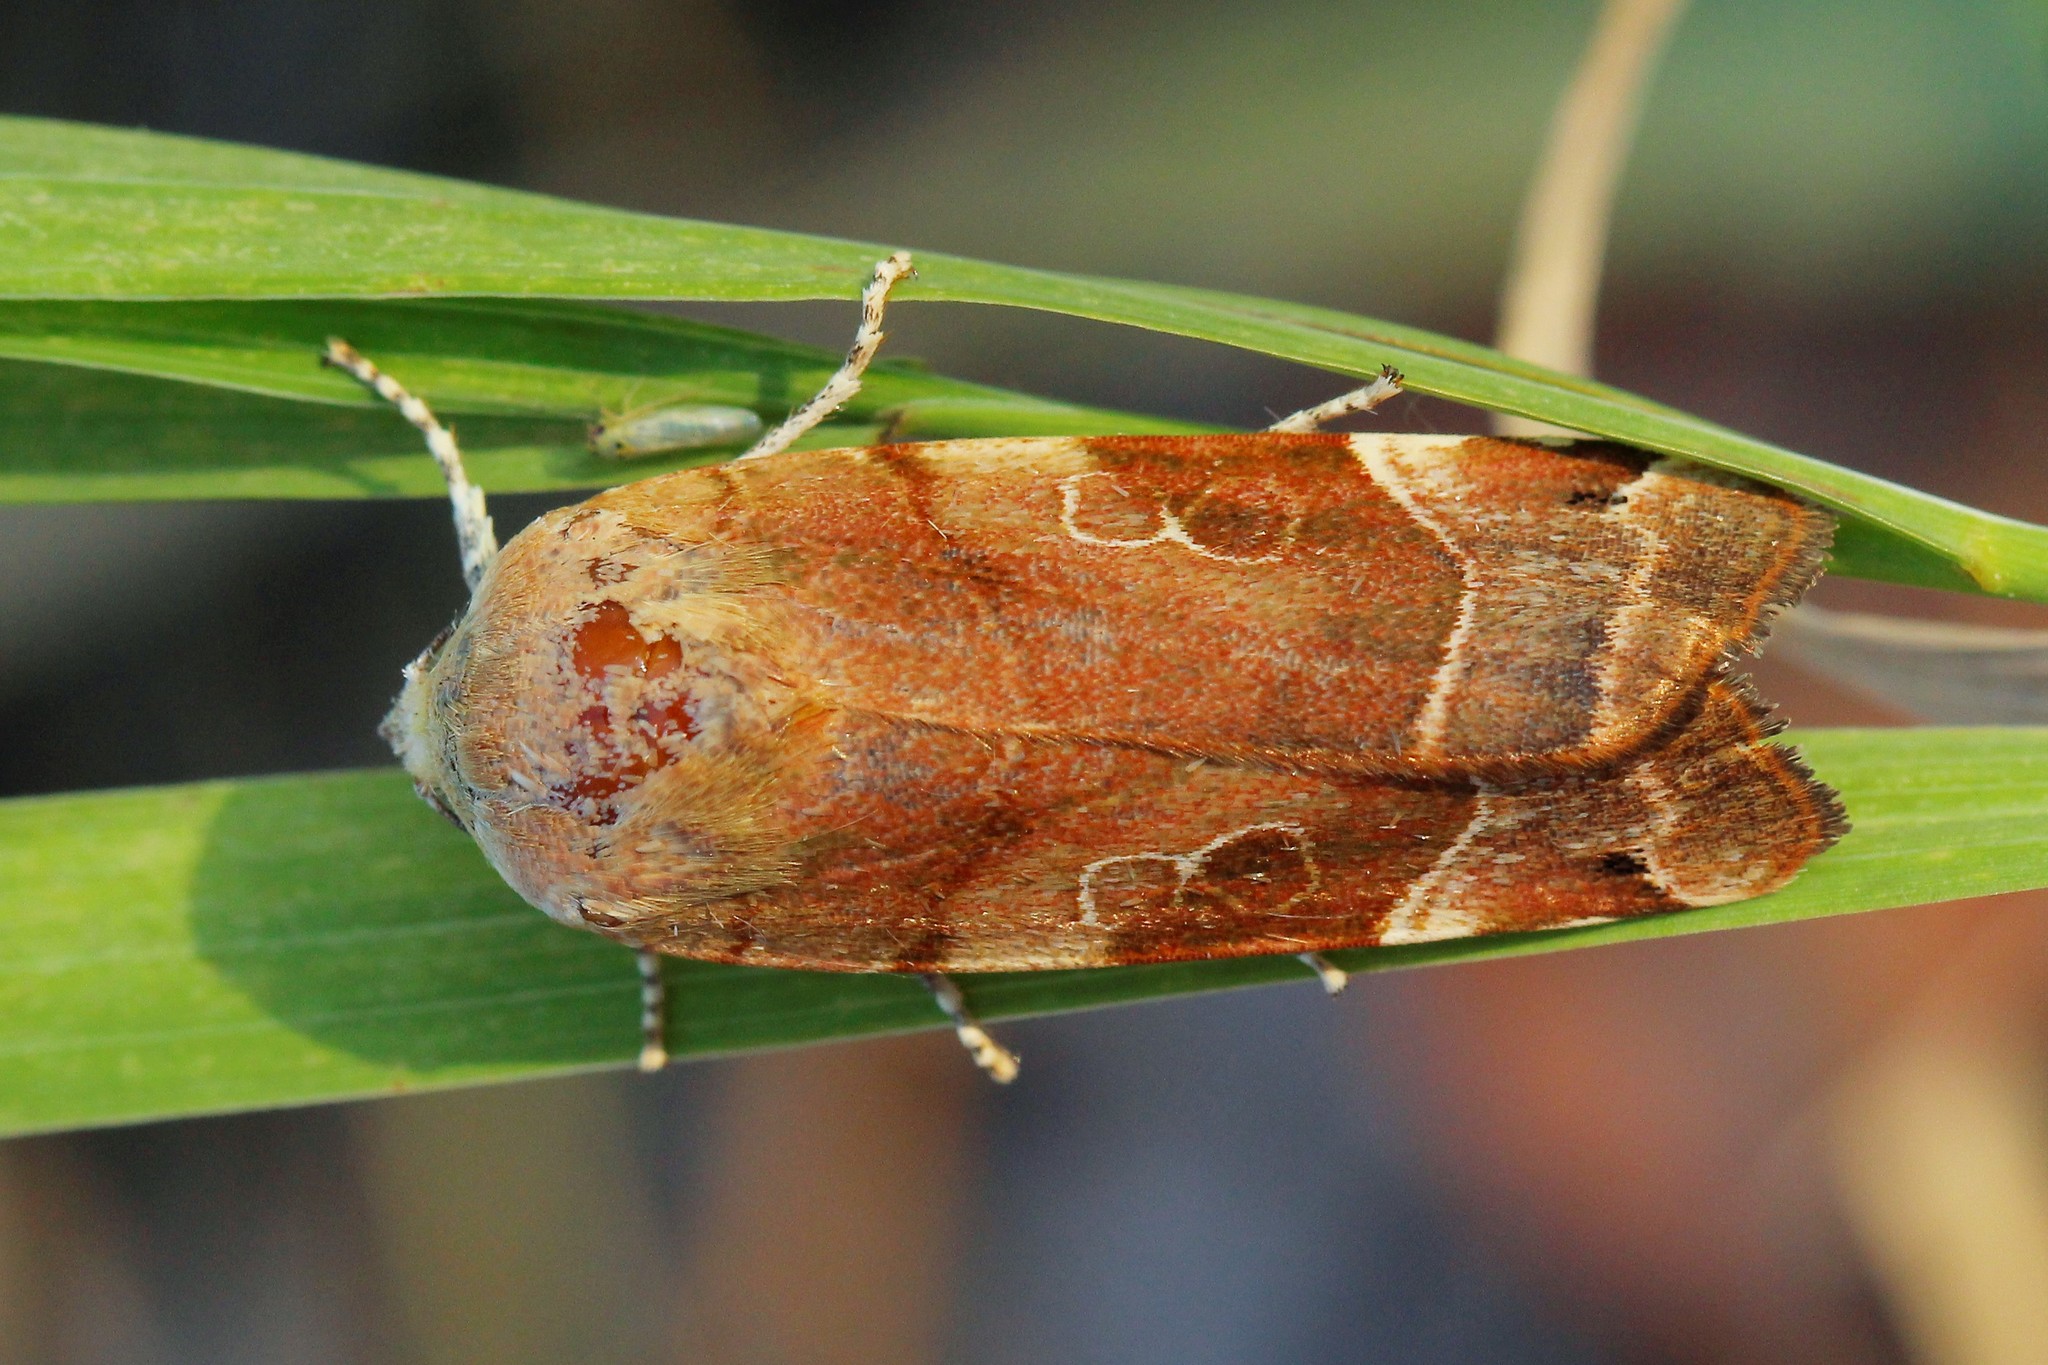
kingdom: Animalia
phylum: Arthropoda
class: Insecta
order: Lepidoptera
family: Noctuidae
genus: Noctua
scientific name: Noctua fimbriata
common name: Broad-bordered yellow underwing
